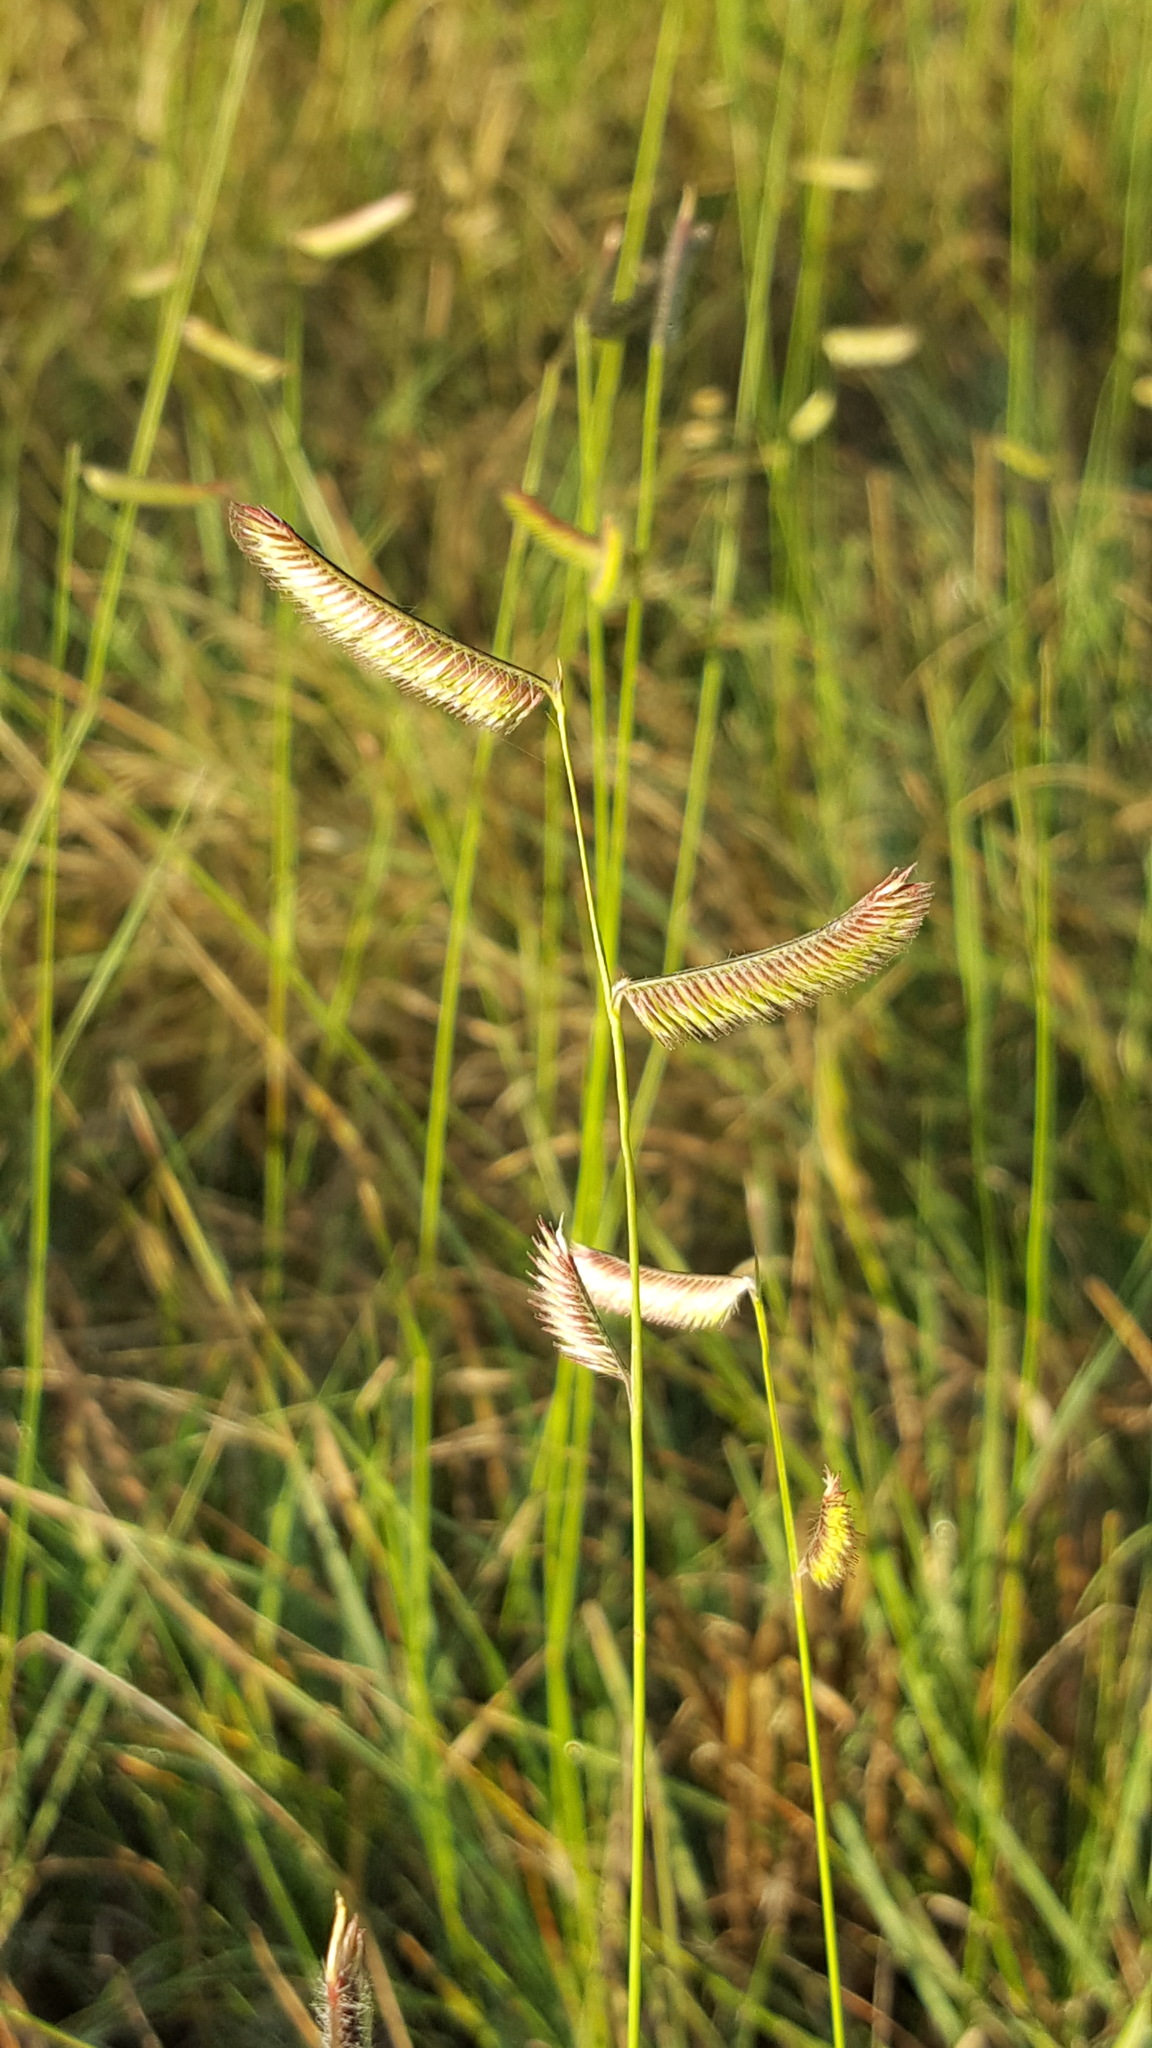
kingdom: Plantae
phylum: Tracheophyta
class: Liliopsida
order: Poales
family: Poaceae
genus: Bouteloua
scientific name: Bouteloua gracilis
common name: Blue grama
